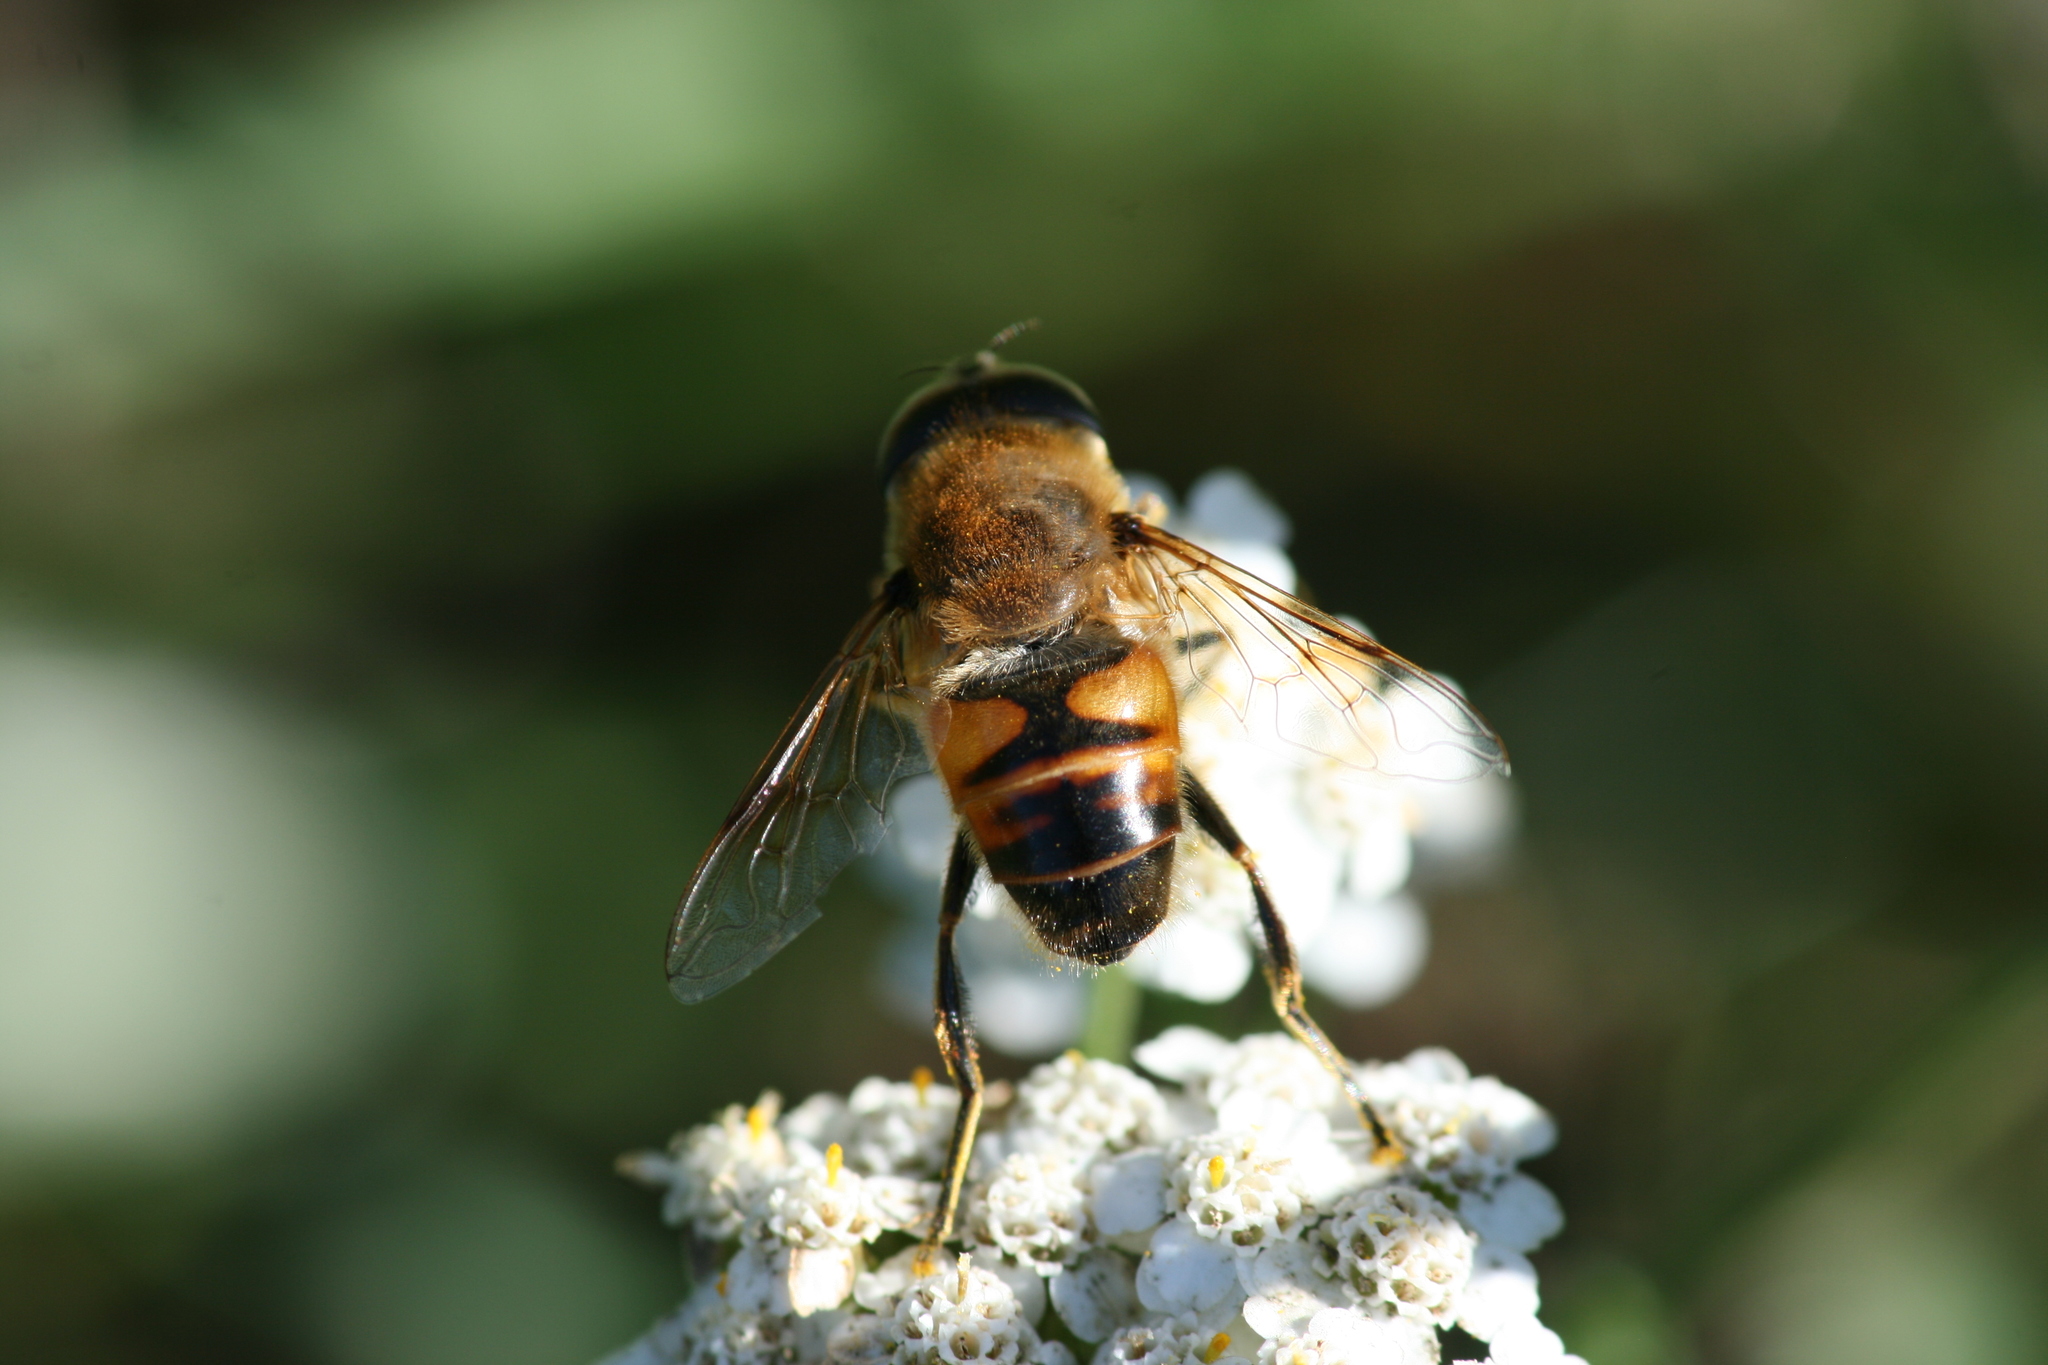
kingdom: Animalia
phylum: Arthropoda
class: Insecta
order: Diptera
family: Syrphidae
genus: Eristalis
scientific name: Eristalis tenax
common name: Drone fly
